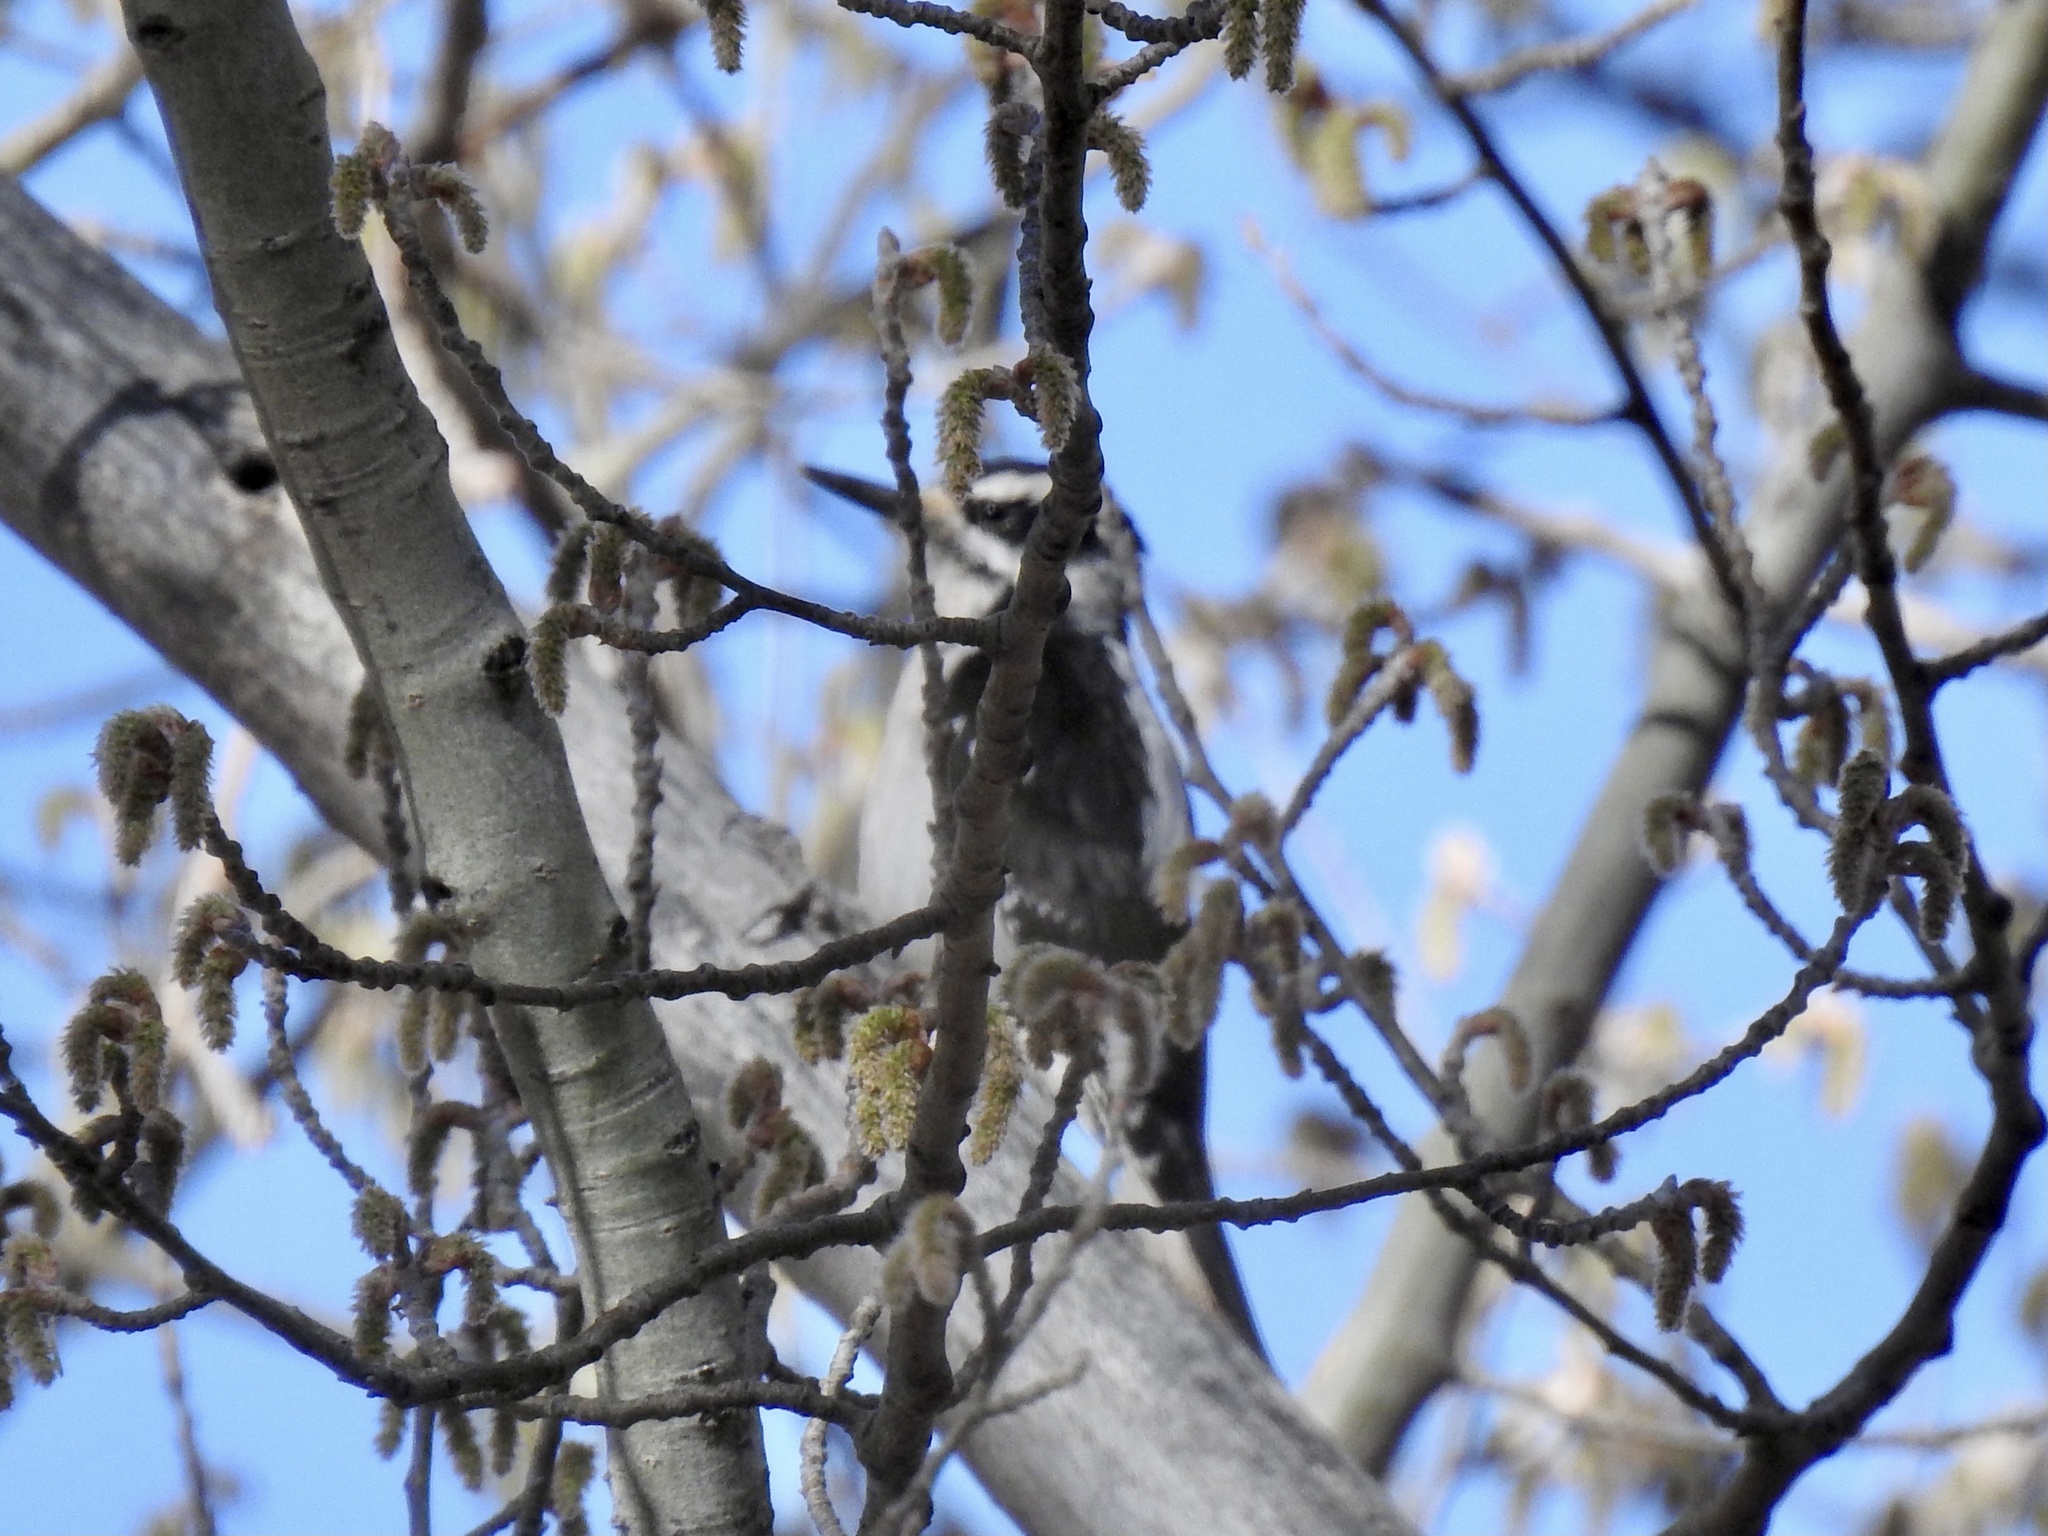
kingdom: Animalia
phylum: Chordata
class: Aves
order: Piciformes
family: Picidae
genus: Leuconotopicus
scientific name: Leuconotopicus villosus
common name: Hairy woodpecker
